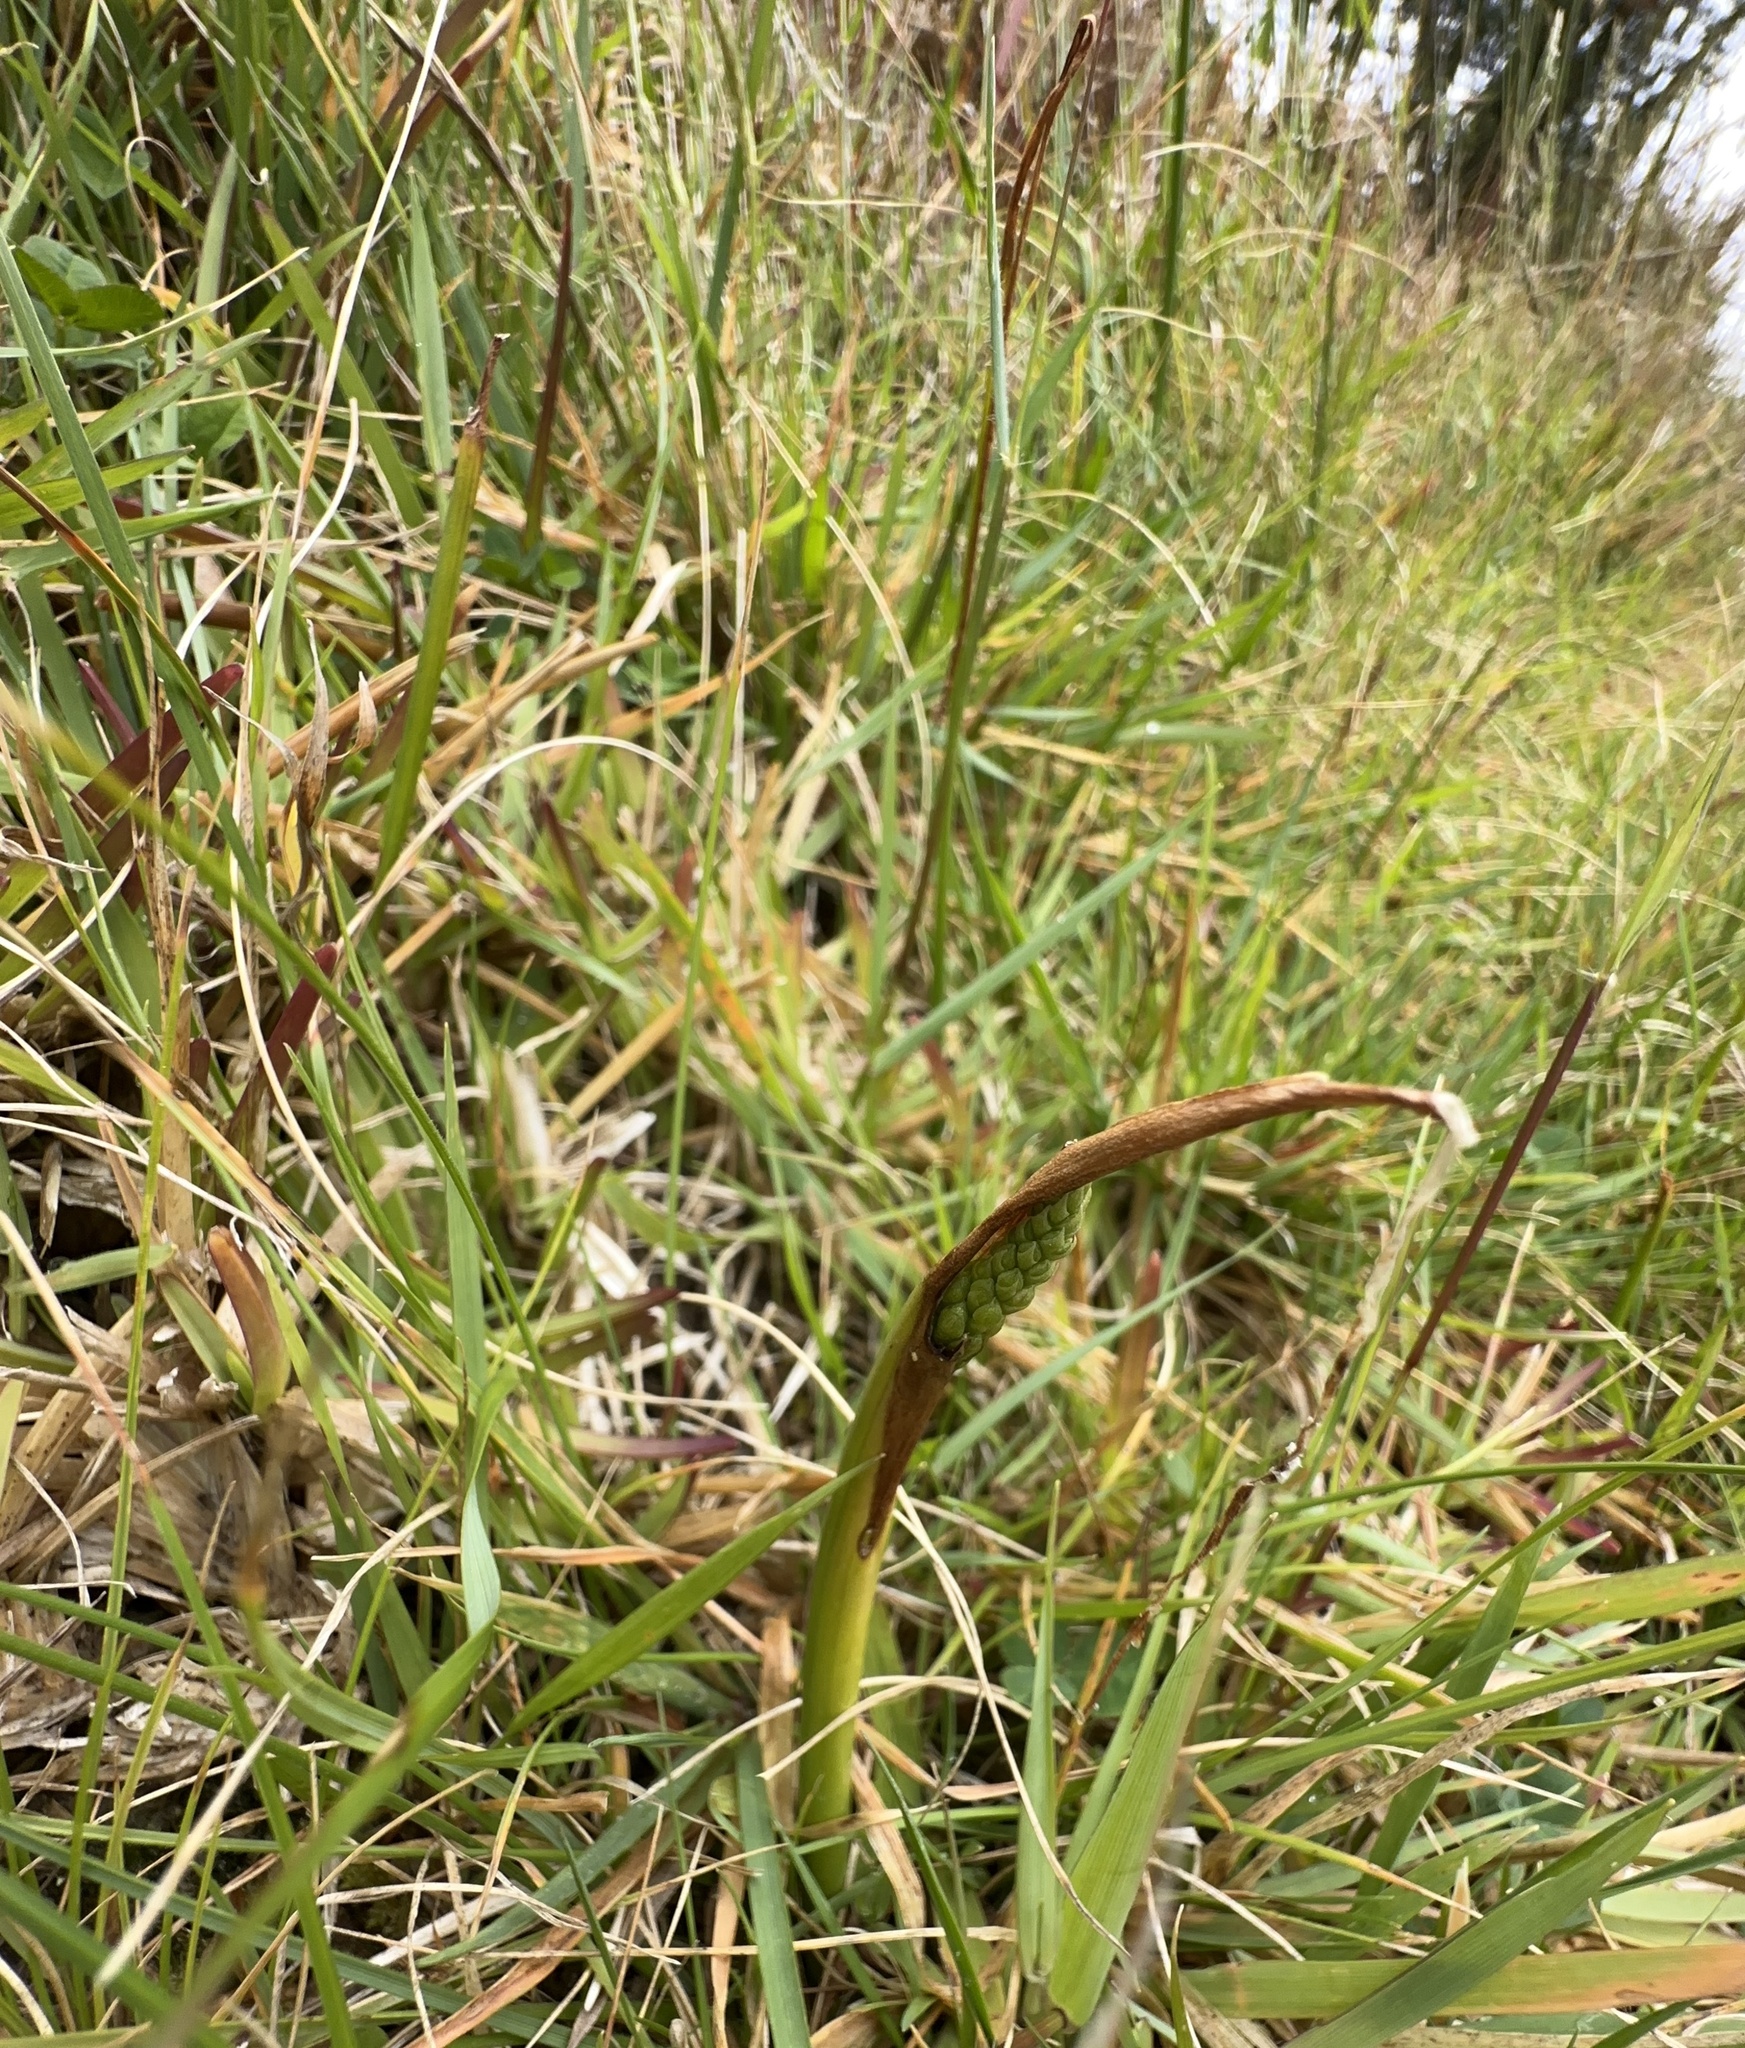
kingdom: Plantae
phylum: Tracheophyta
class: Liliopsida
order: Asparagales
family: Orchidaceae
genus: Microtis
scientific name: Microtis unifolia
